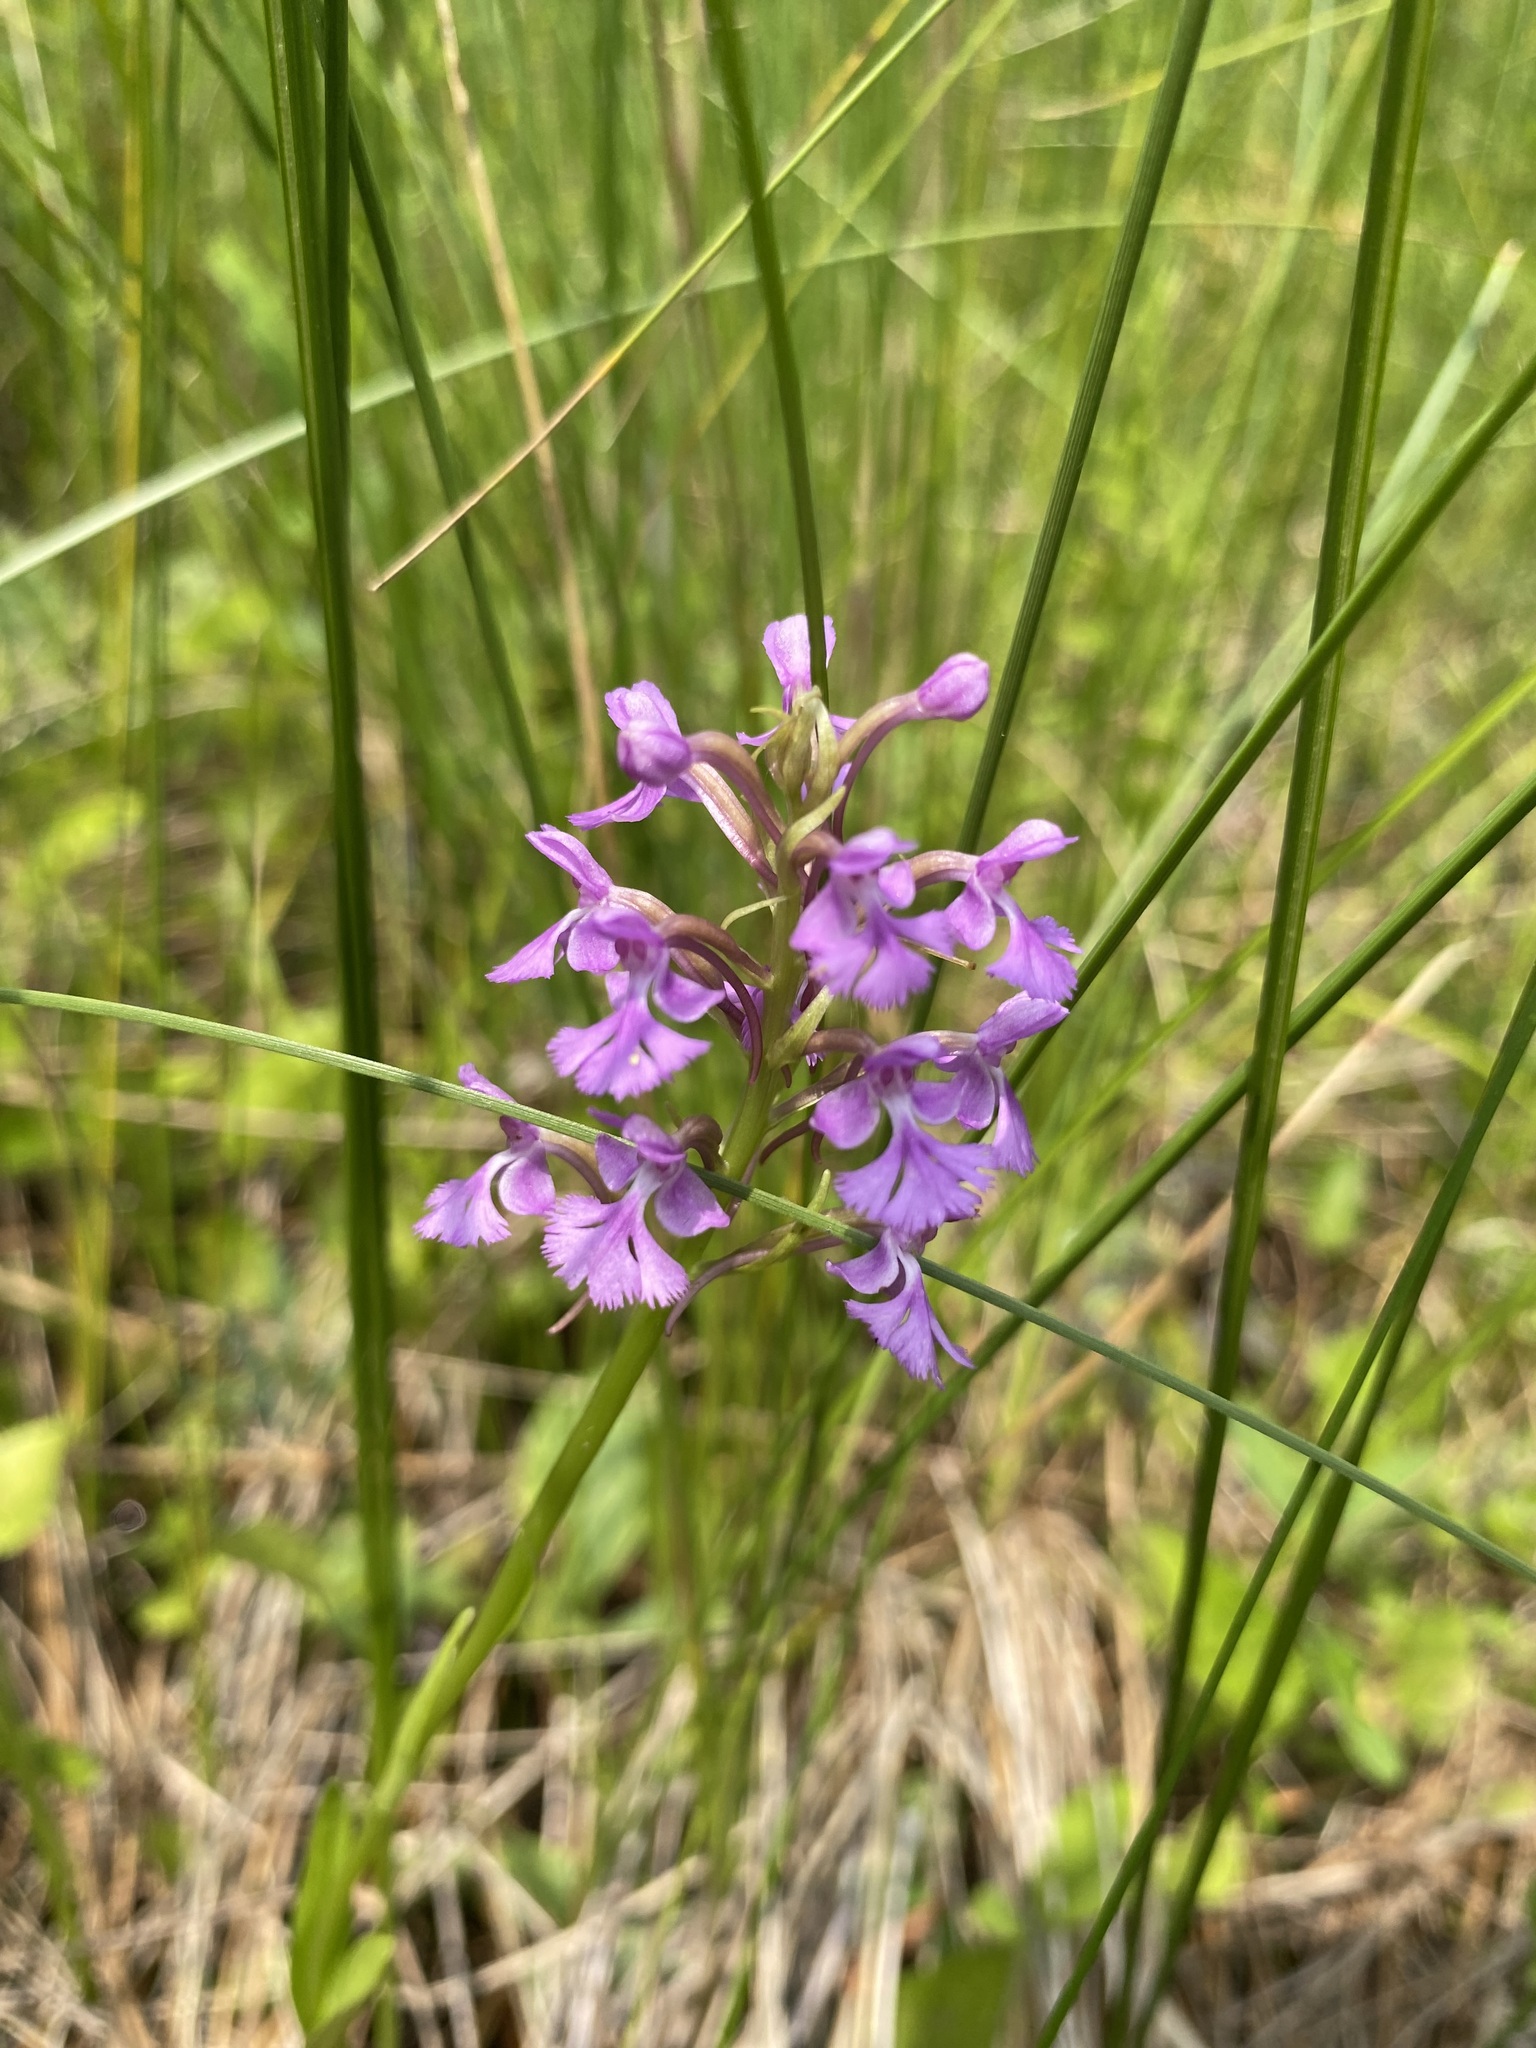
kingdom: Plantae
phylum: Tracheophyta
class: Liliopsida
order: Asparagales
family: Orchidaceae
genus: Platanthera
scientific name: Platanthera psycodes
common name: Lesser purple fringed orchid
